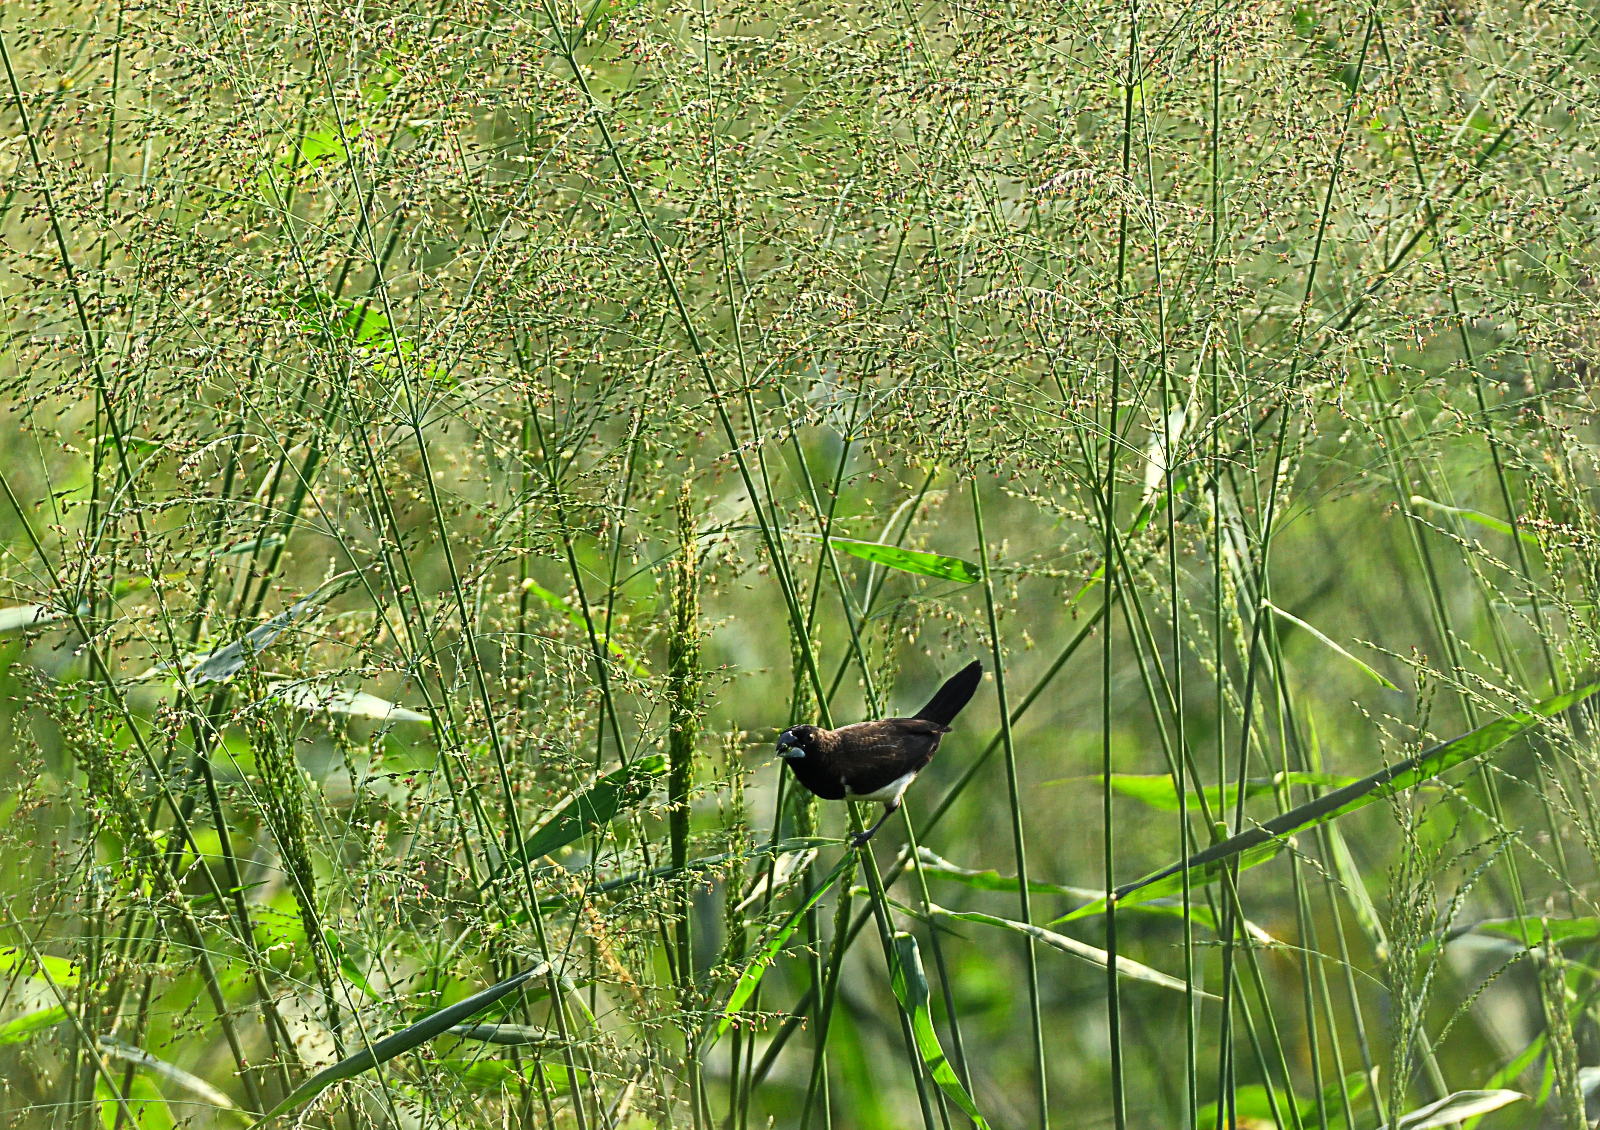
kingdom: Animalia
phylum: Chordata
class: Aves
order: Passeriformes
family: Estrildidae
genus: Lonchura
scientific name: Lonchura striata
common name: White-rumped munia
